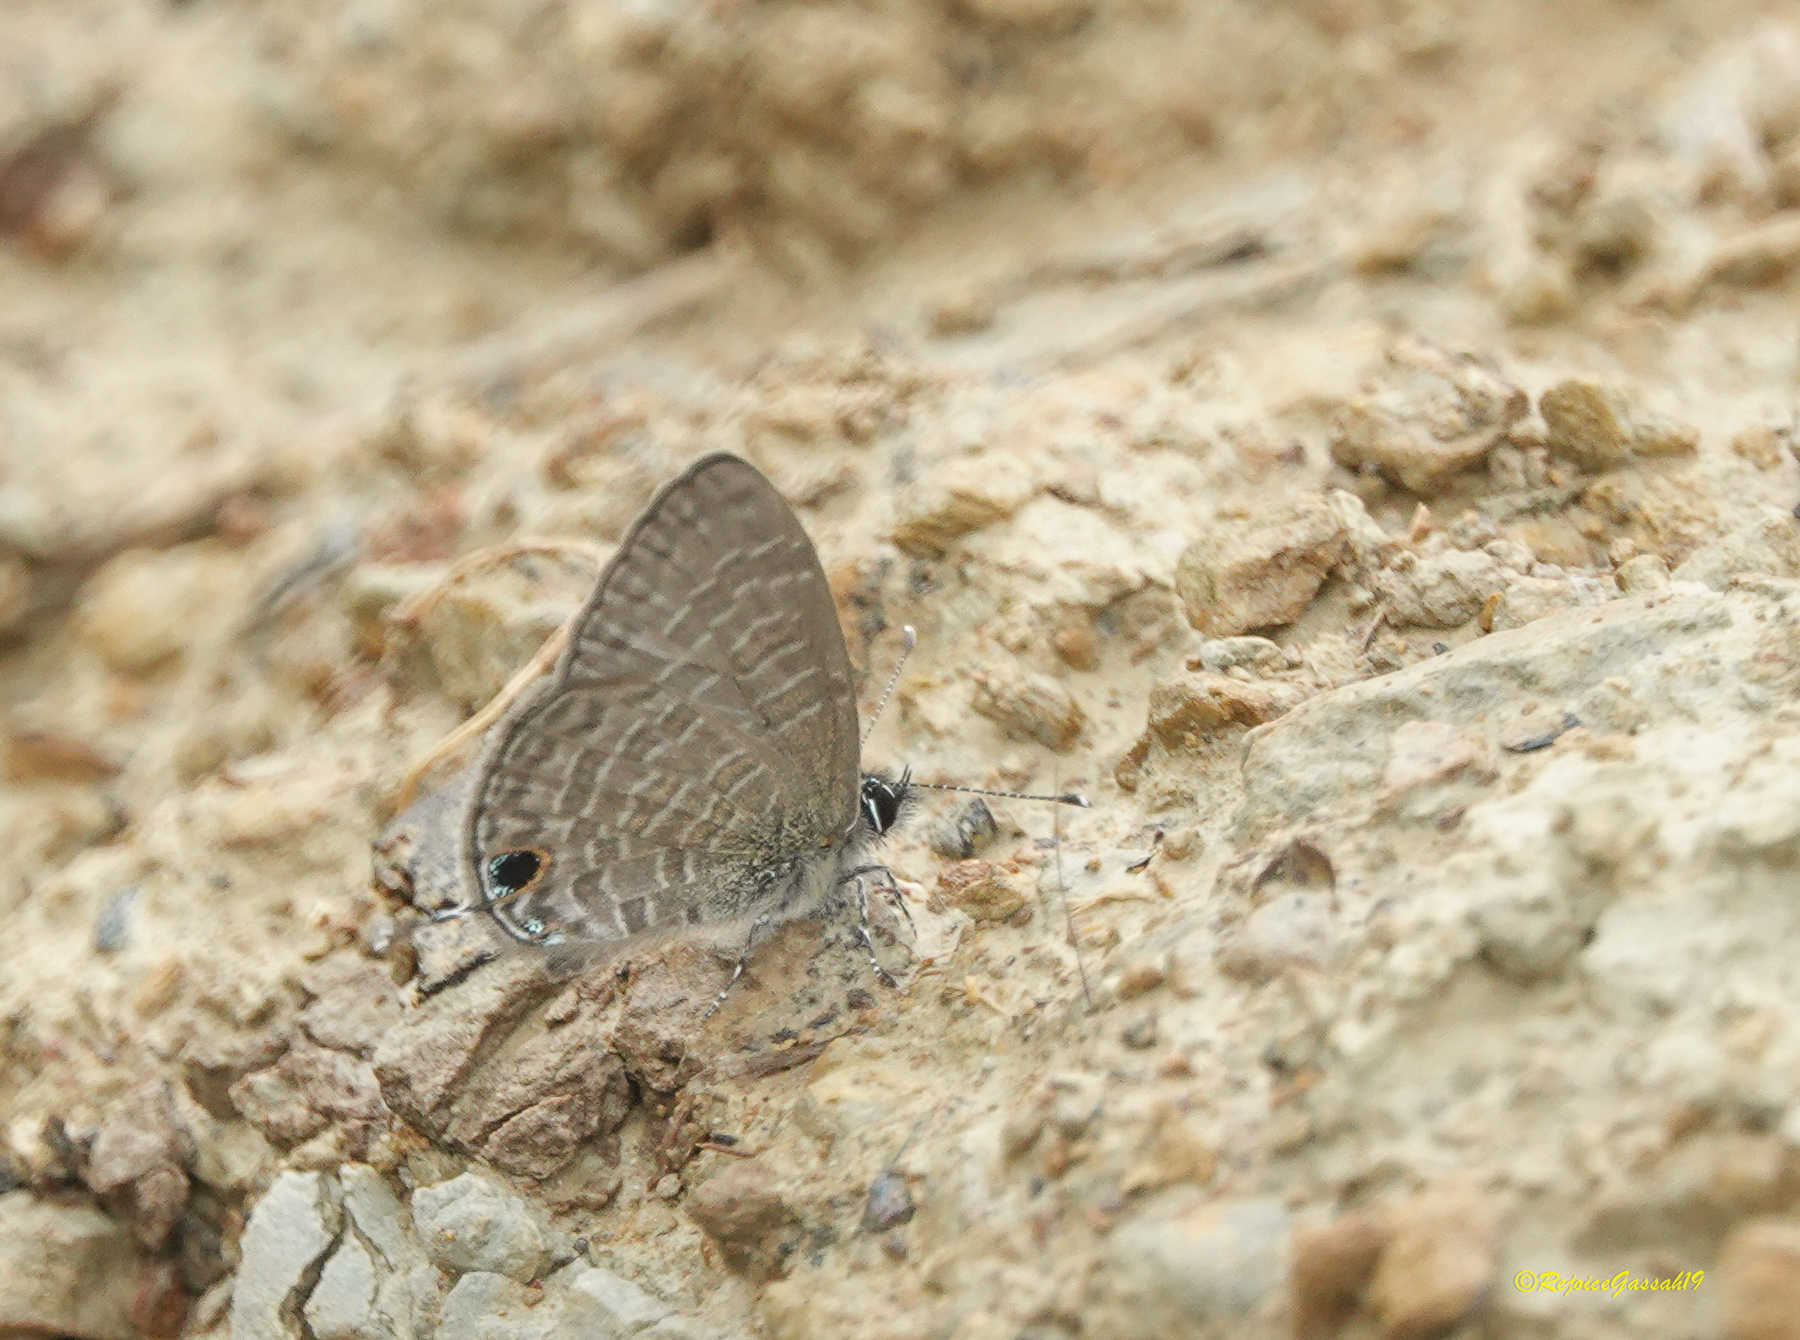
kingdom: Animalia
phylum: Arthropoda
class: Insecta
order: Lepidoptera
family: Lycaenidae
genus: Prosotas
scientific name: Prosotas nora
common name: Common line blue
